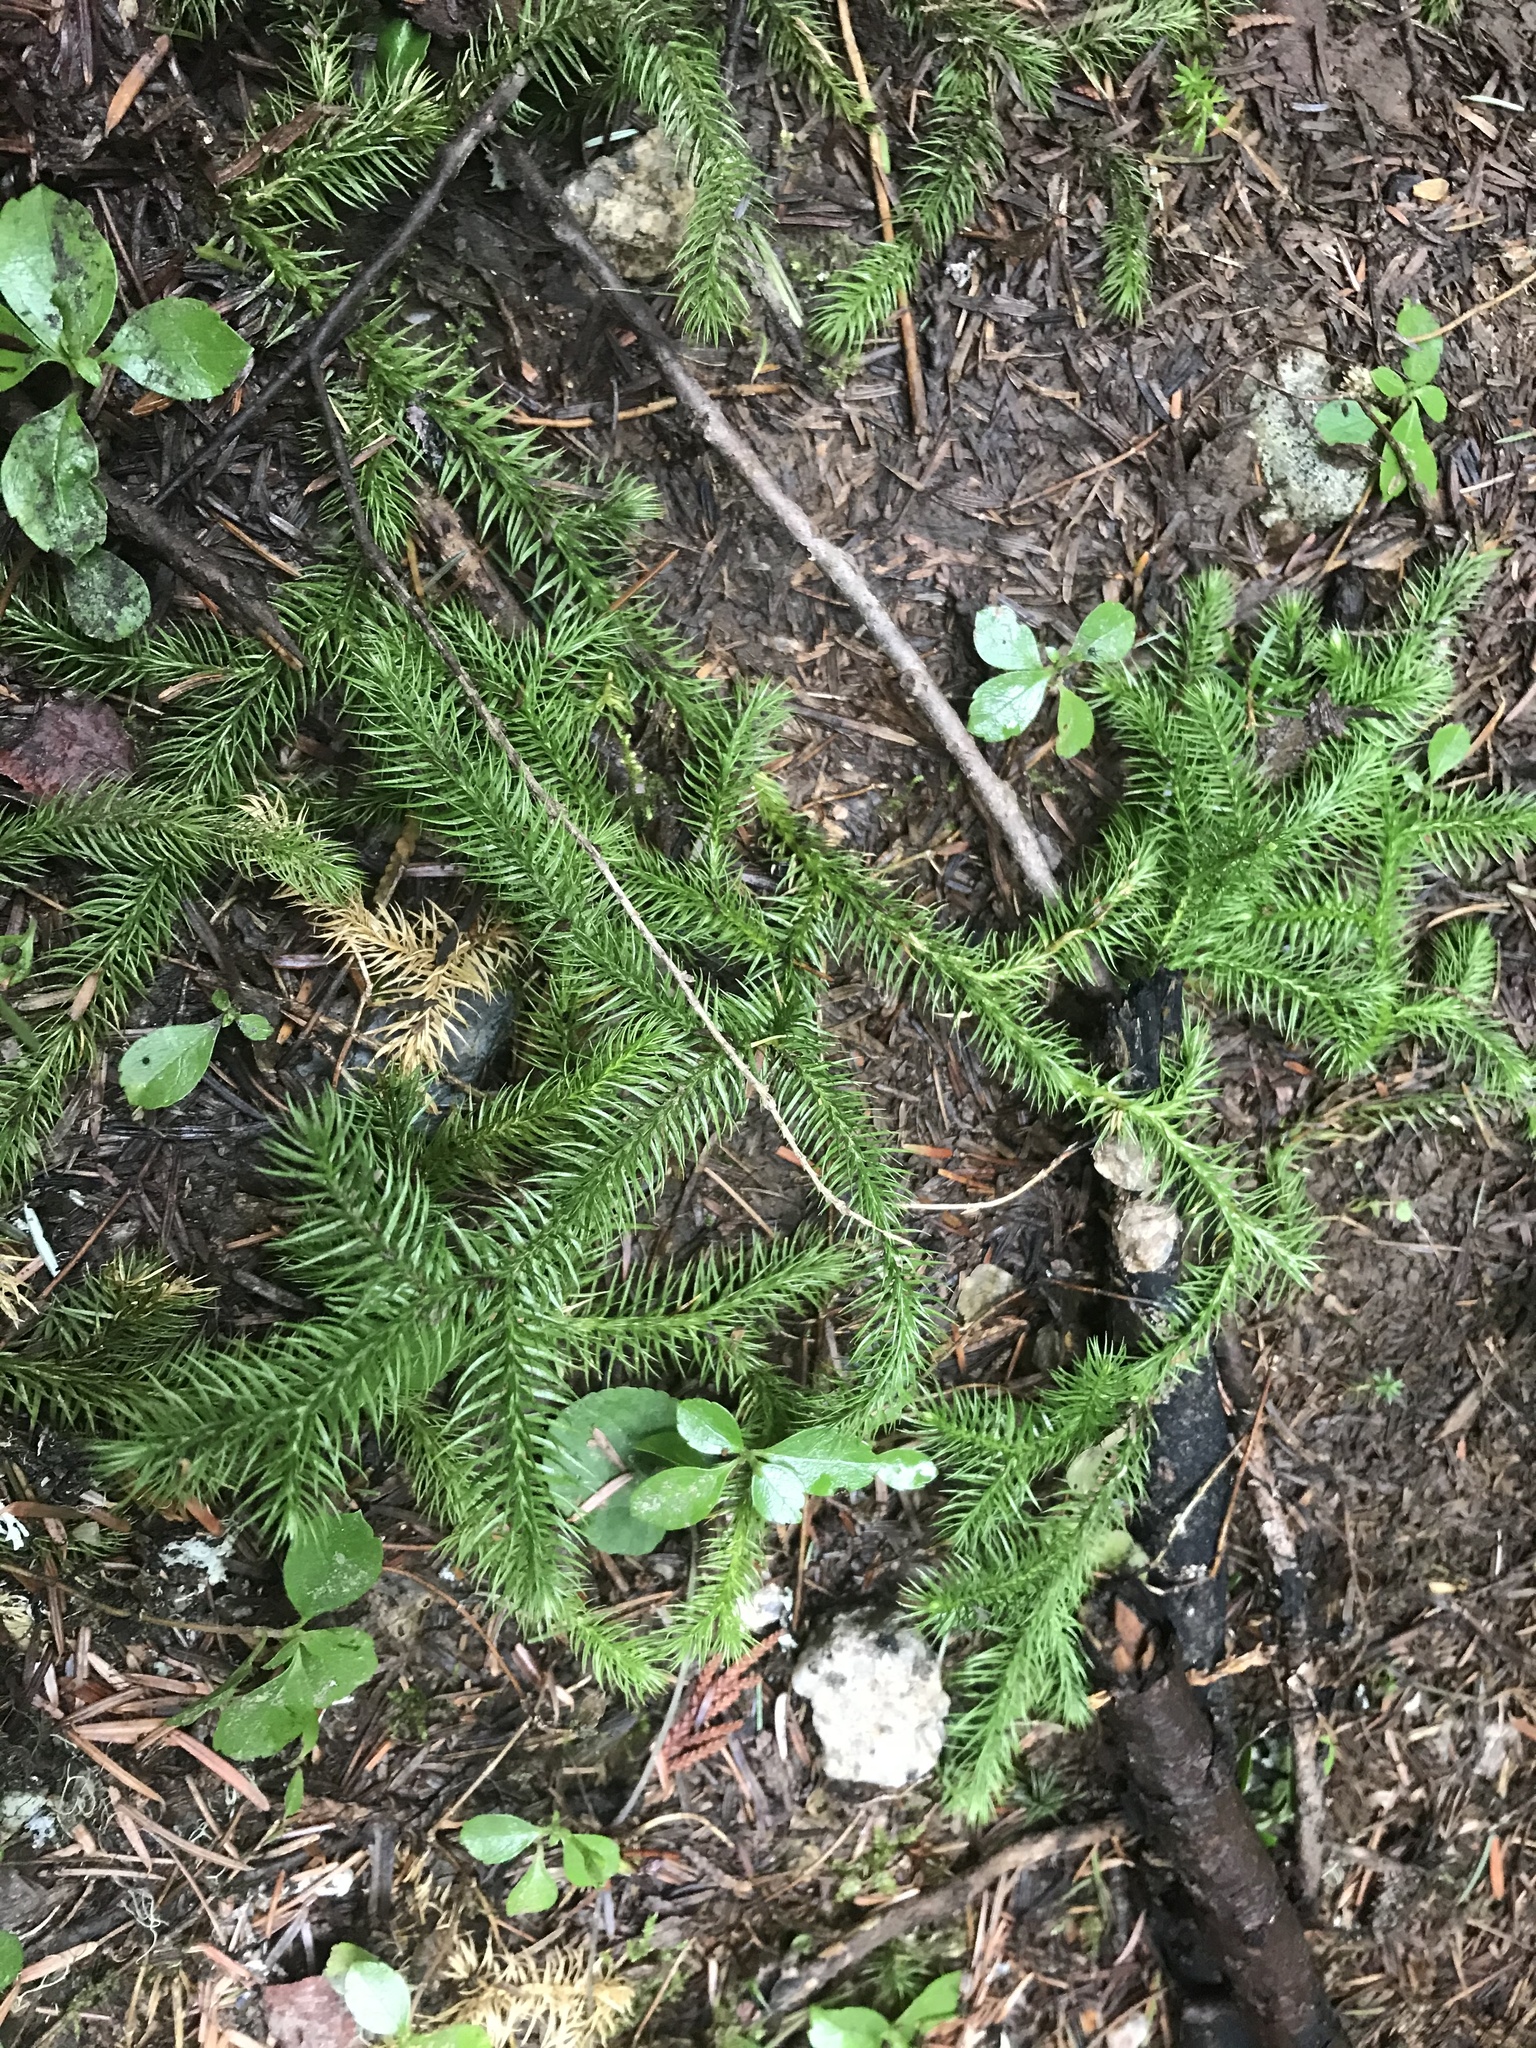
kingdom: Plantae
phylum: Tracheophyta
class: Lycopodiopsida
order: Lycopodiales
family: Lycopodiaceae
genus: Lycopodium
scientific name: Lycopodium clavatum
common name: Stag's-horn clubmoss
